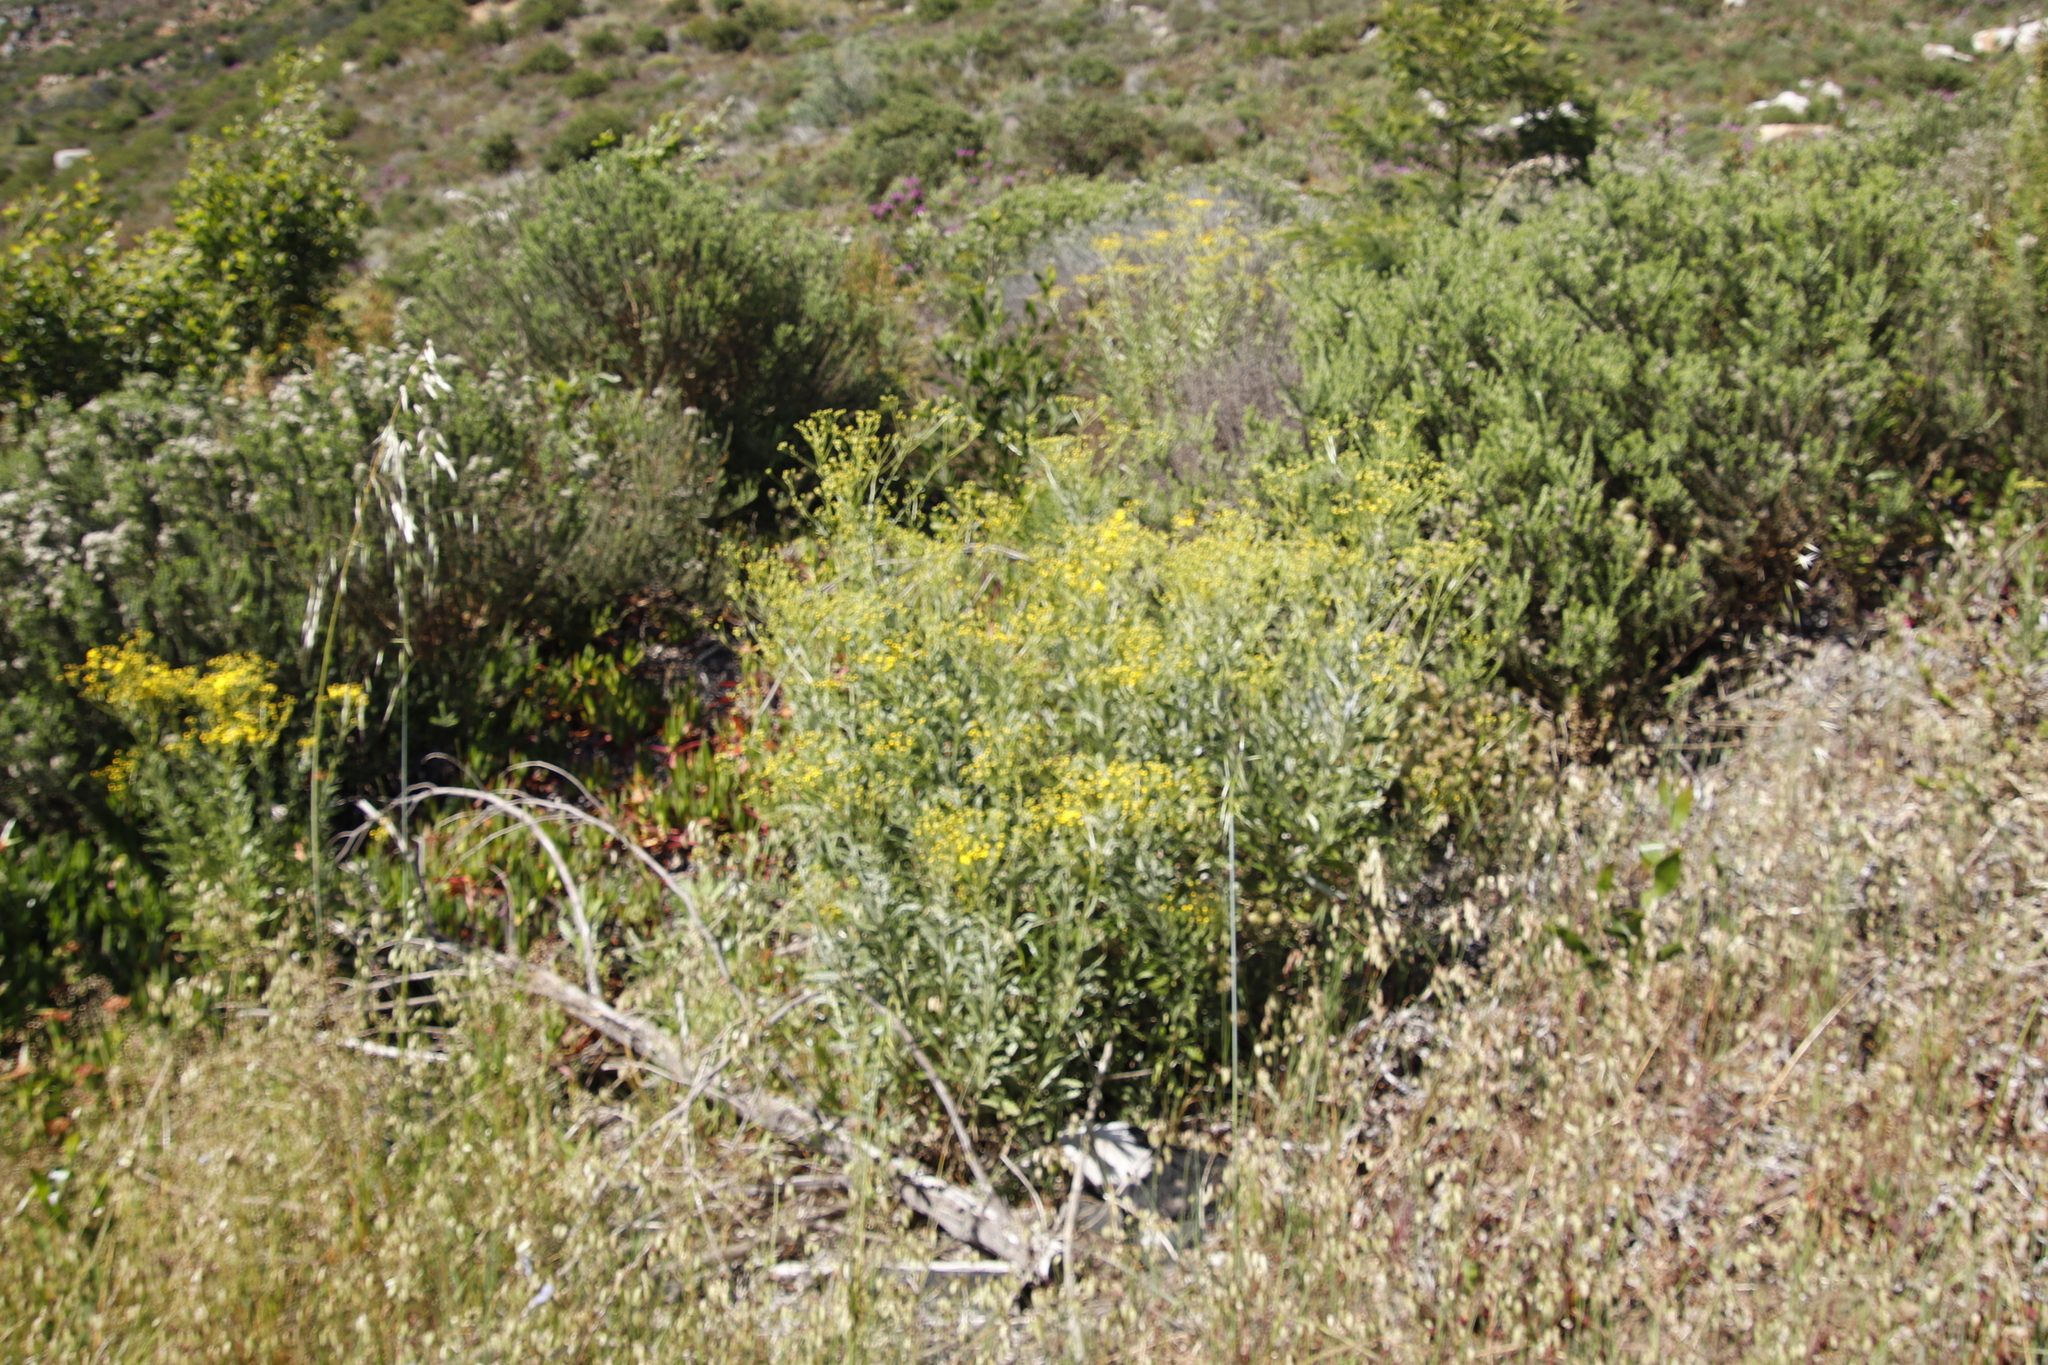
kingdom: Plantae
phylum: Tracheophyta
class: Magnoliopsida
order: Asterales
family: Asteraceae
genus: Senecio
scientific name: Senecio pterophorus
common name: Shoddy ragwort
